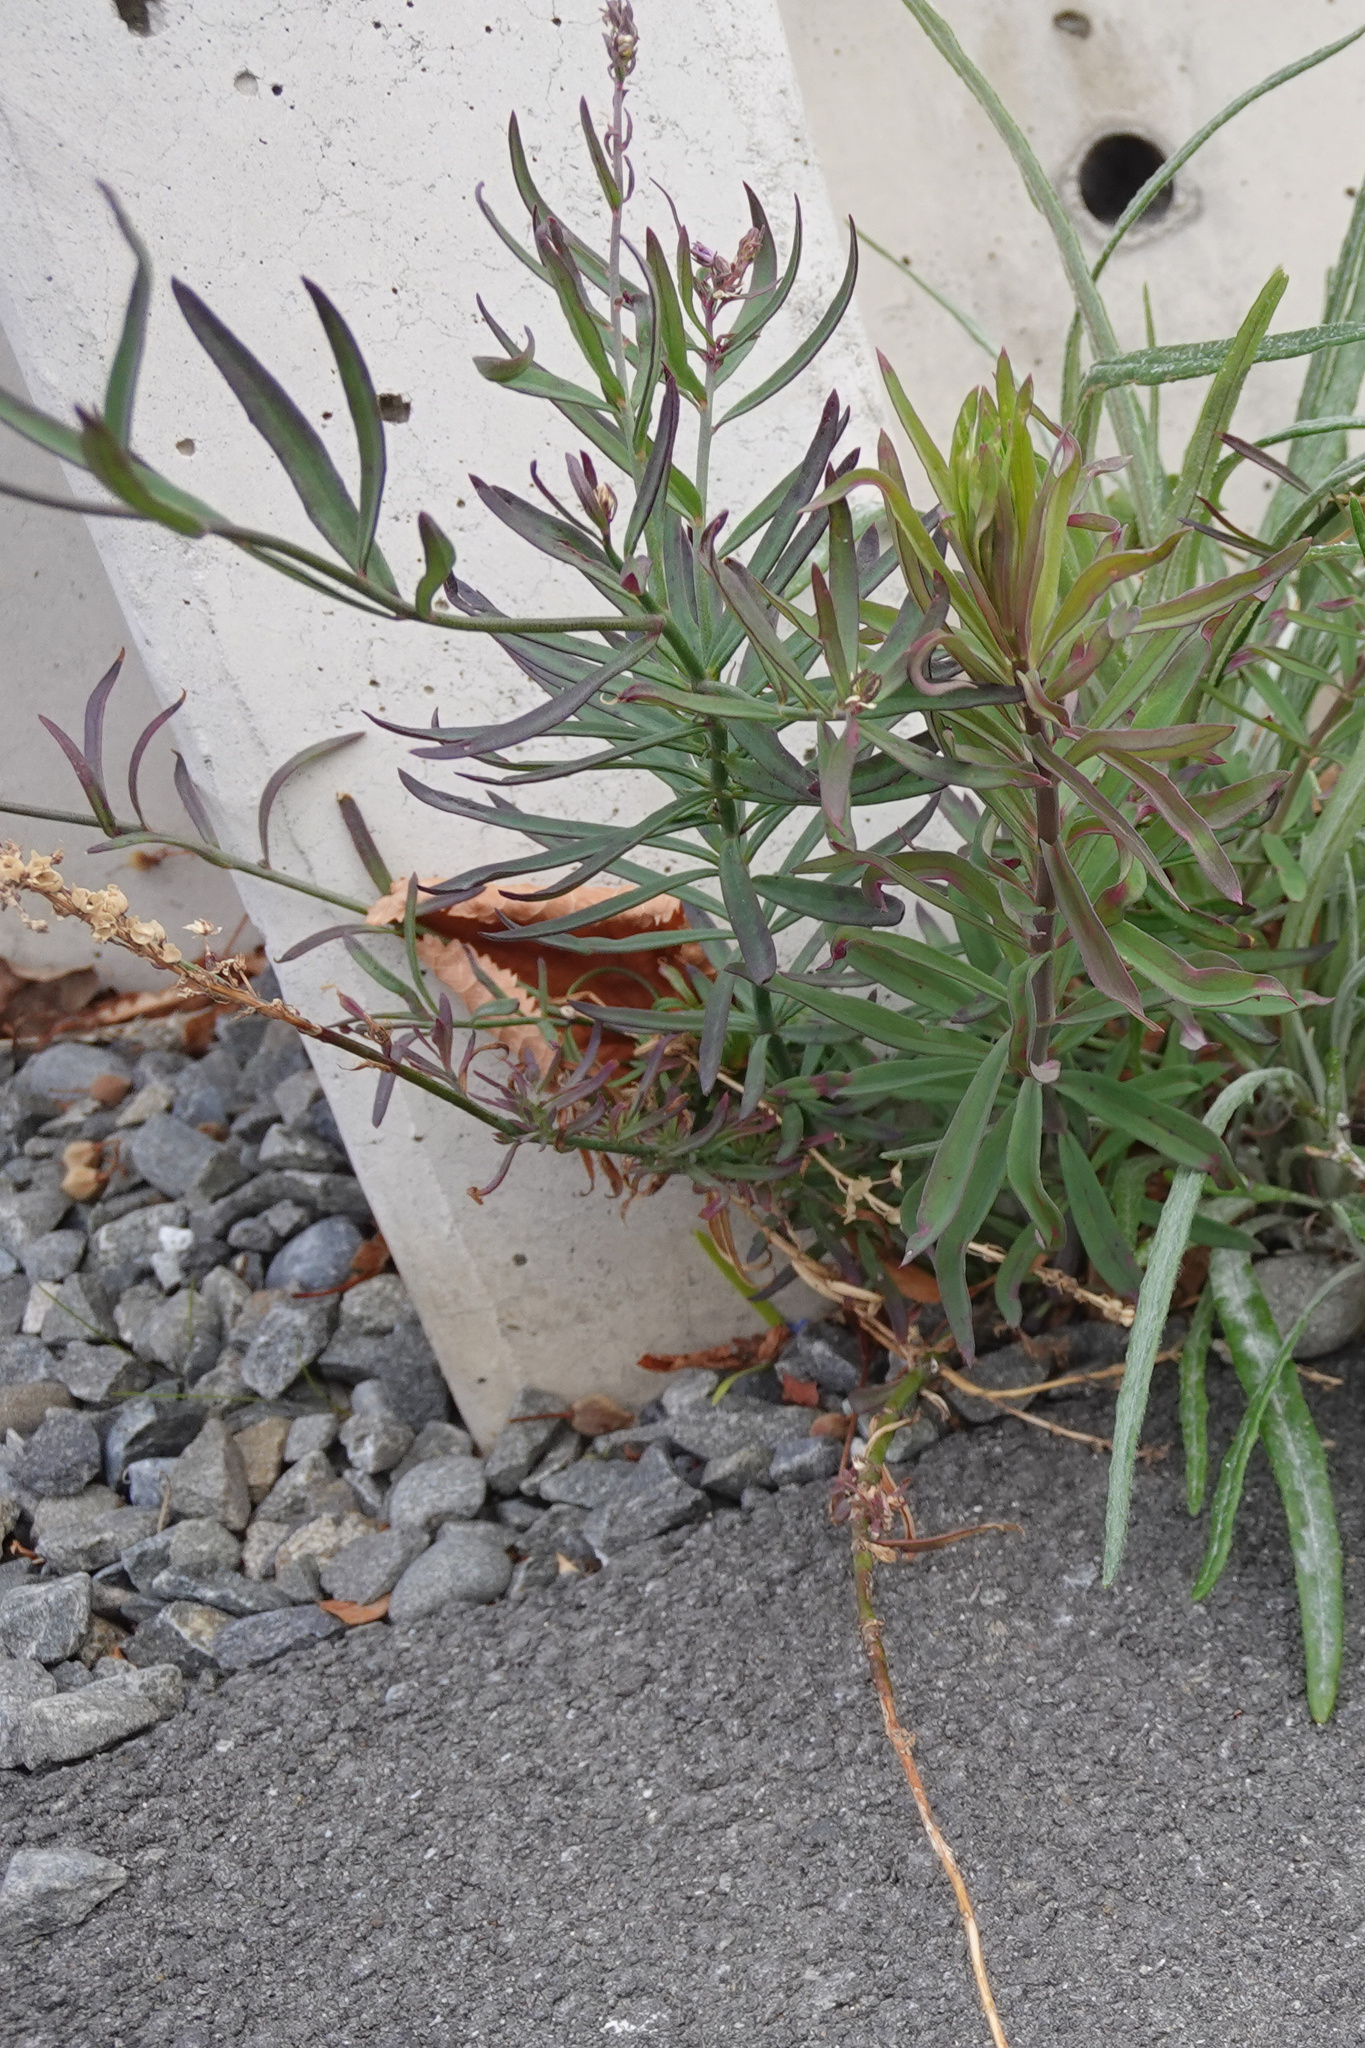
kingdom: Plantae
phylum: Tracheophyta
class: Magnoliopsida
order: Lamiales
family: Plantaginaceae
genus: Linaria
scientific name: Linaria purpurea
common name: Purple toadflax
